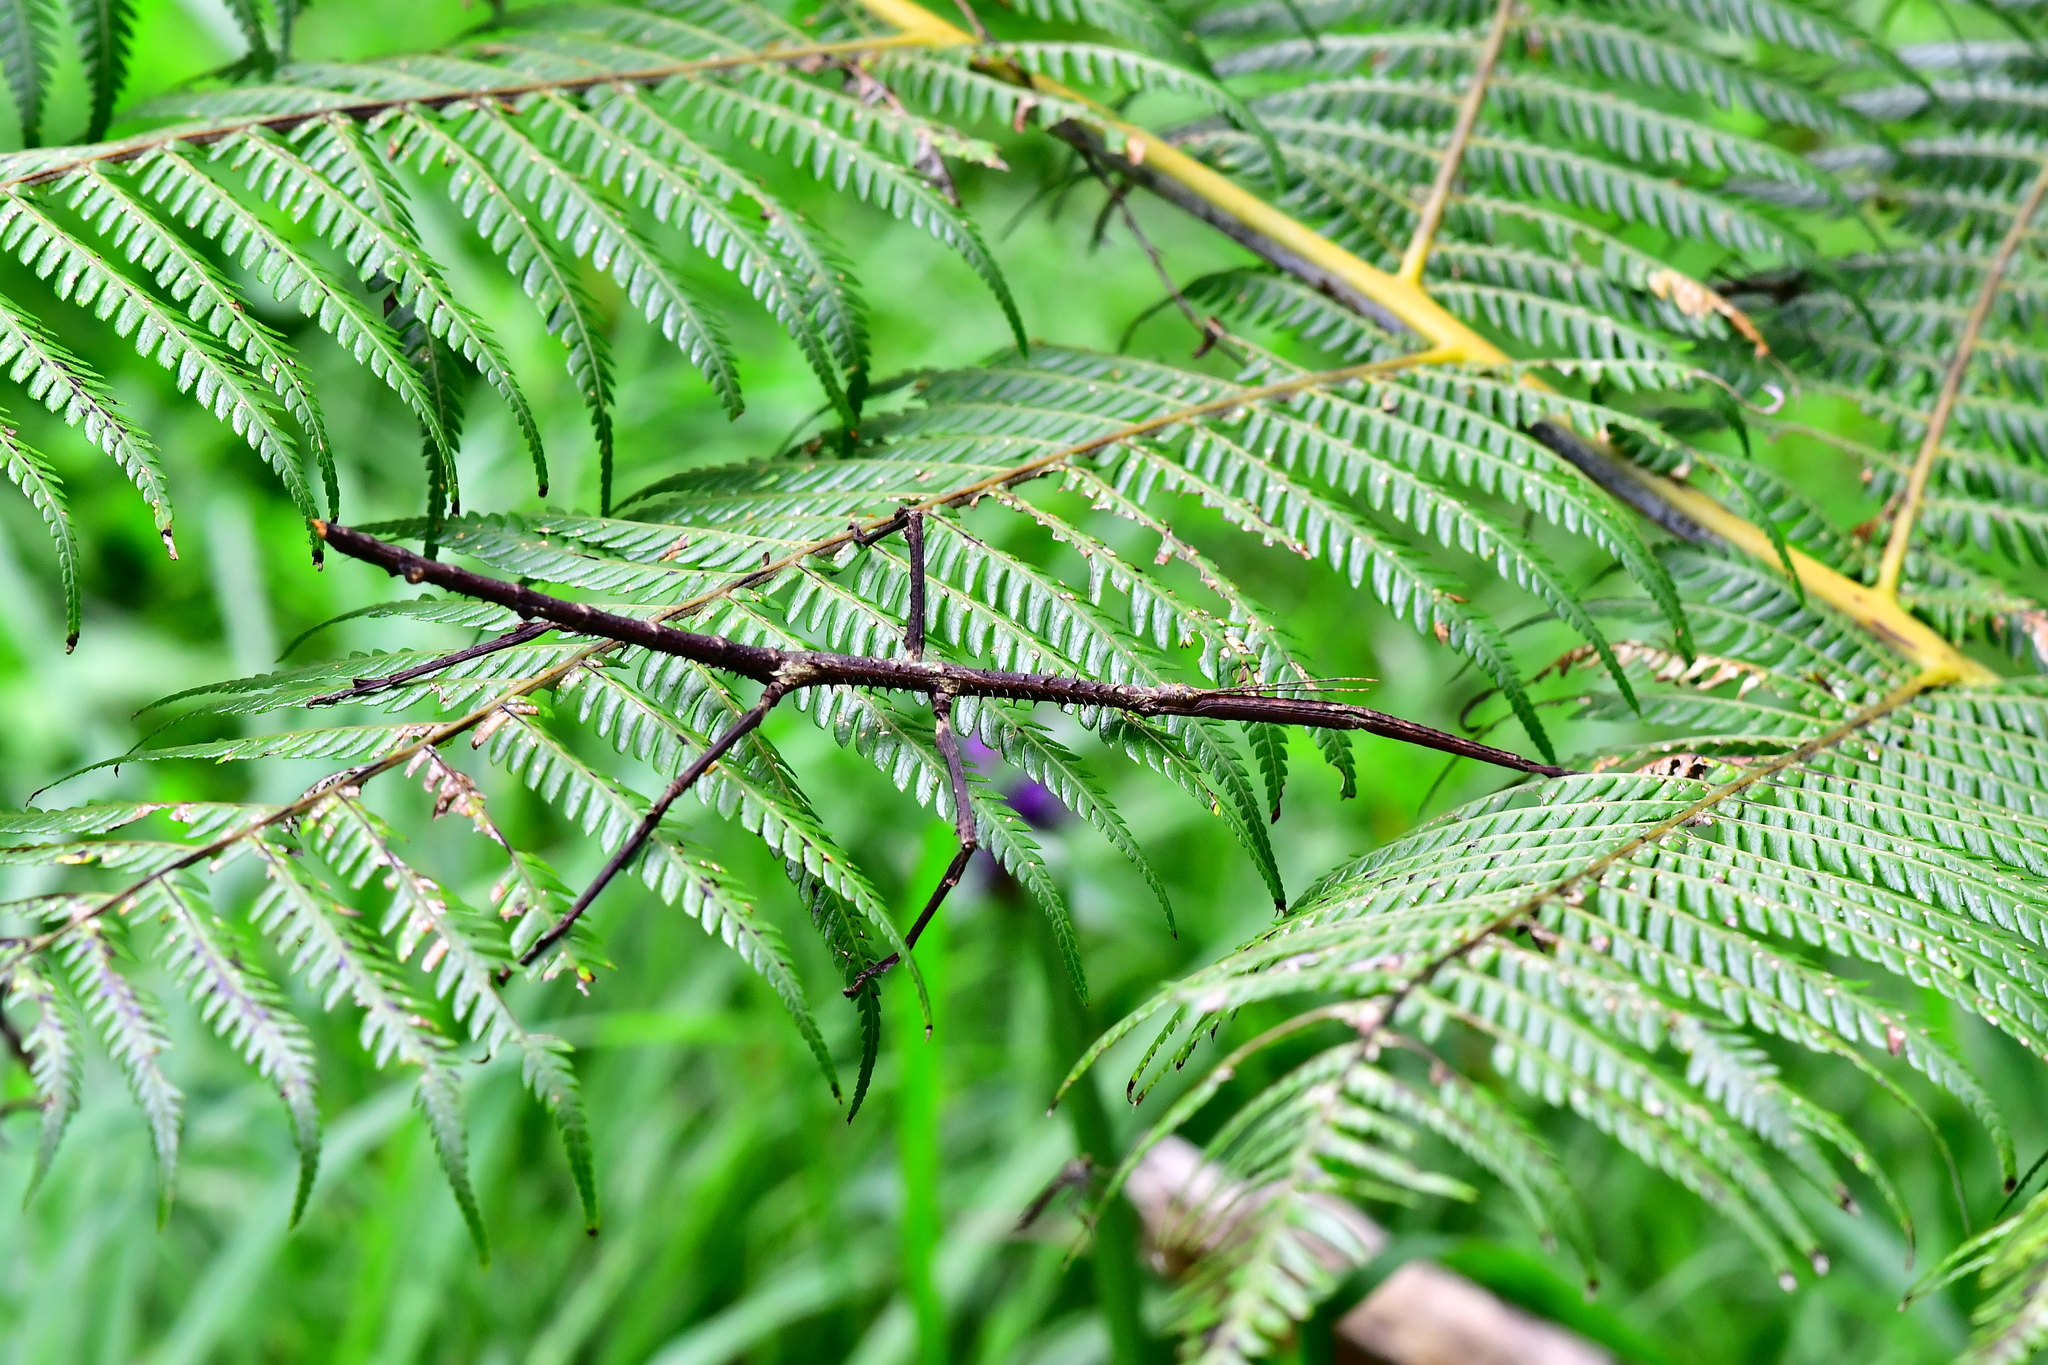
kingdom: Animalia
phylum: Arthropoda
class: Insecta
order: Phasmida
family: Phasmatidae
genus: Argosarchus
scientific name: Argosarchus horridus
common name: Bristly stick insect
